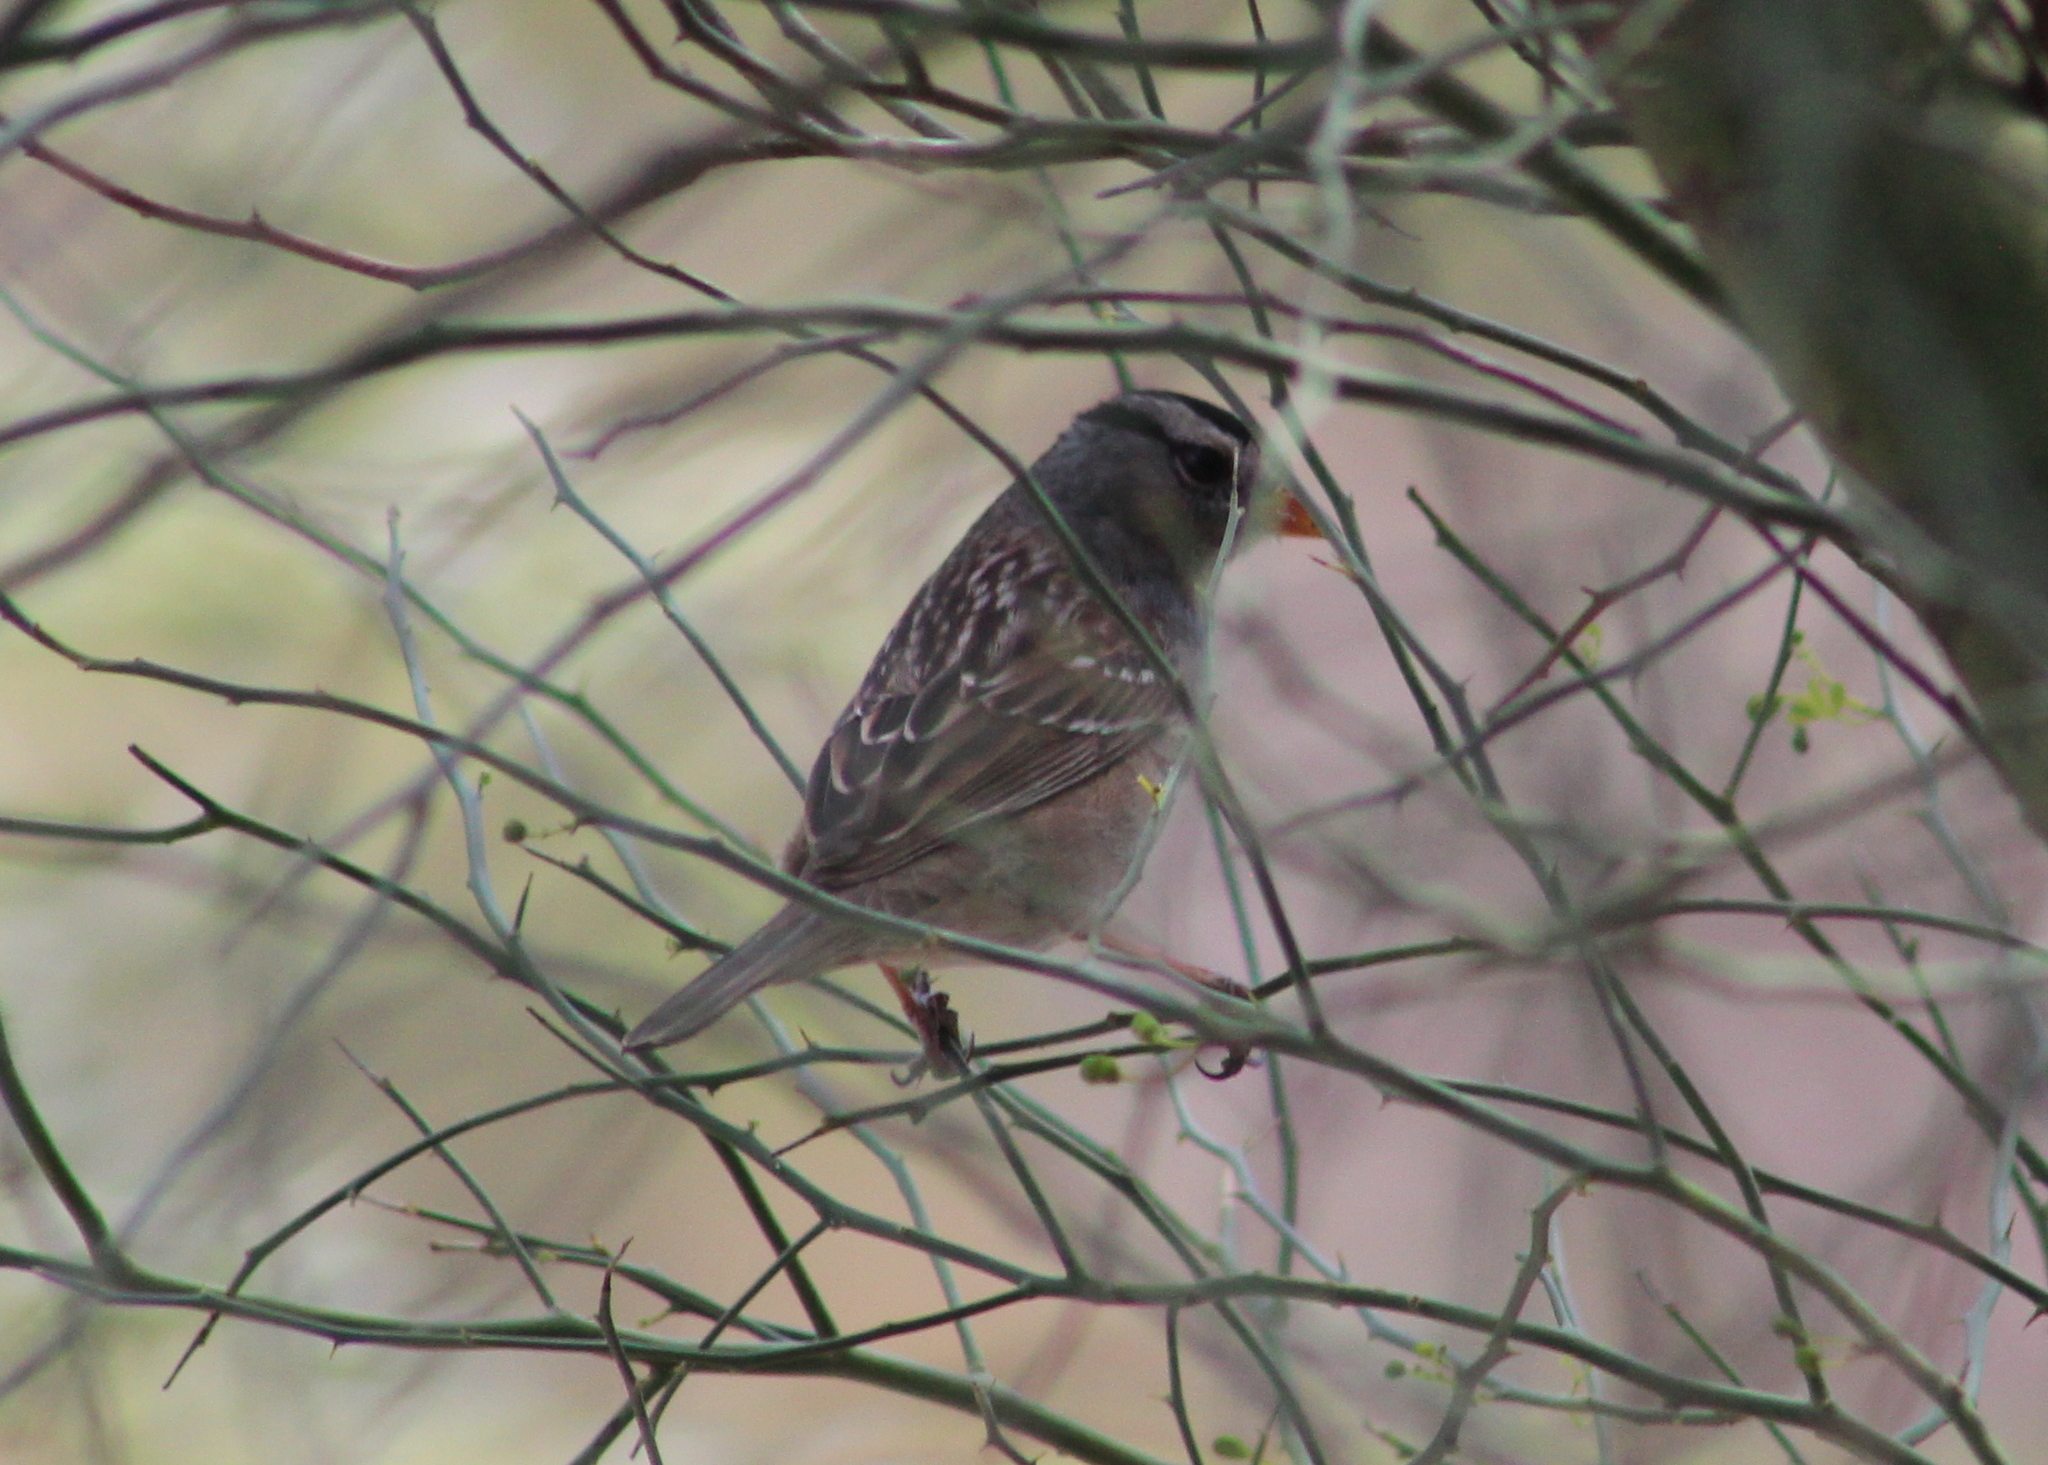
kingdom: Animalia
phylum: Chordata
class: Aves
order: Passeriformes
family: Passerellidae
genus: Zonotrichia
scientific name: Zonotrichia leucophrys
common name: White-crowned sparrow
